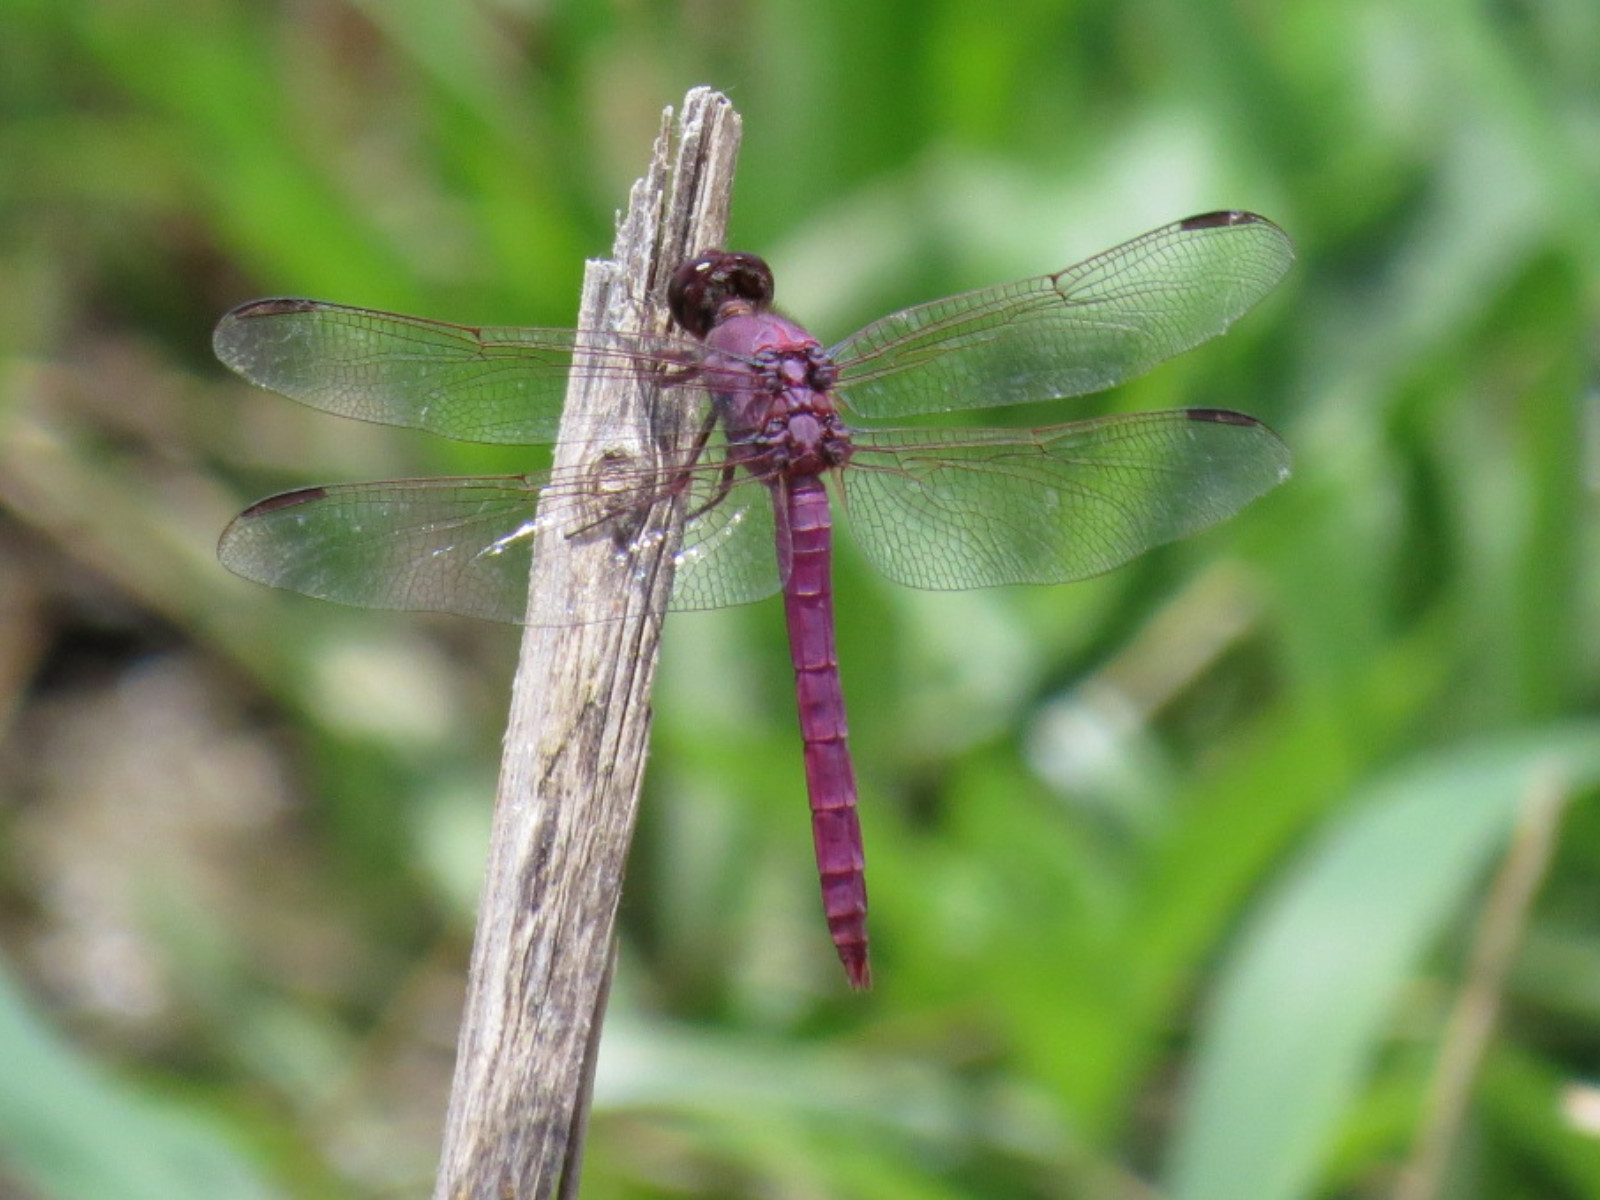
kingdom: Animalia
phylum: Arthropoda
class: Insecta
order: Odonata
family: Libellulidae
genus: Orthemis
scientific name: Orthemis ferruginea
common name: Roseate skimmer
